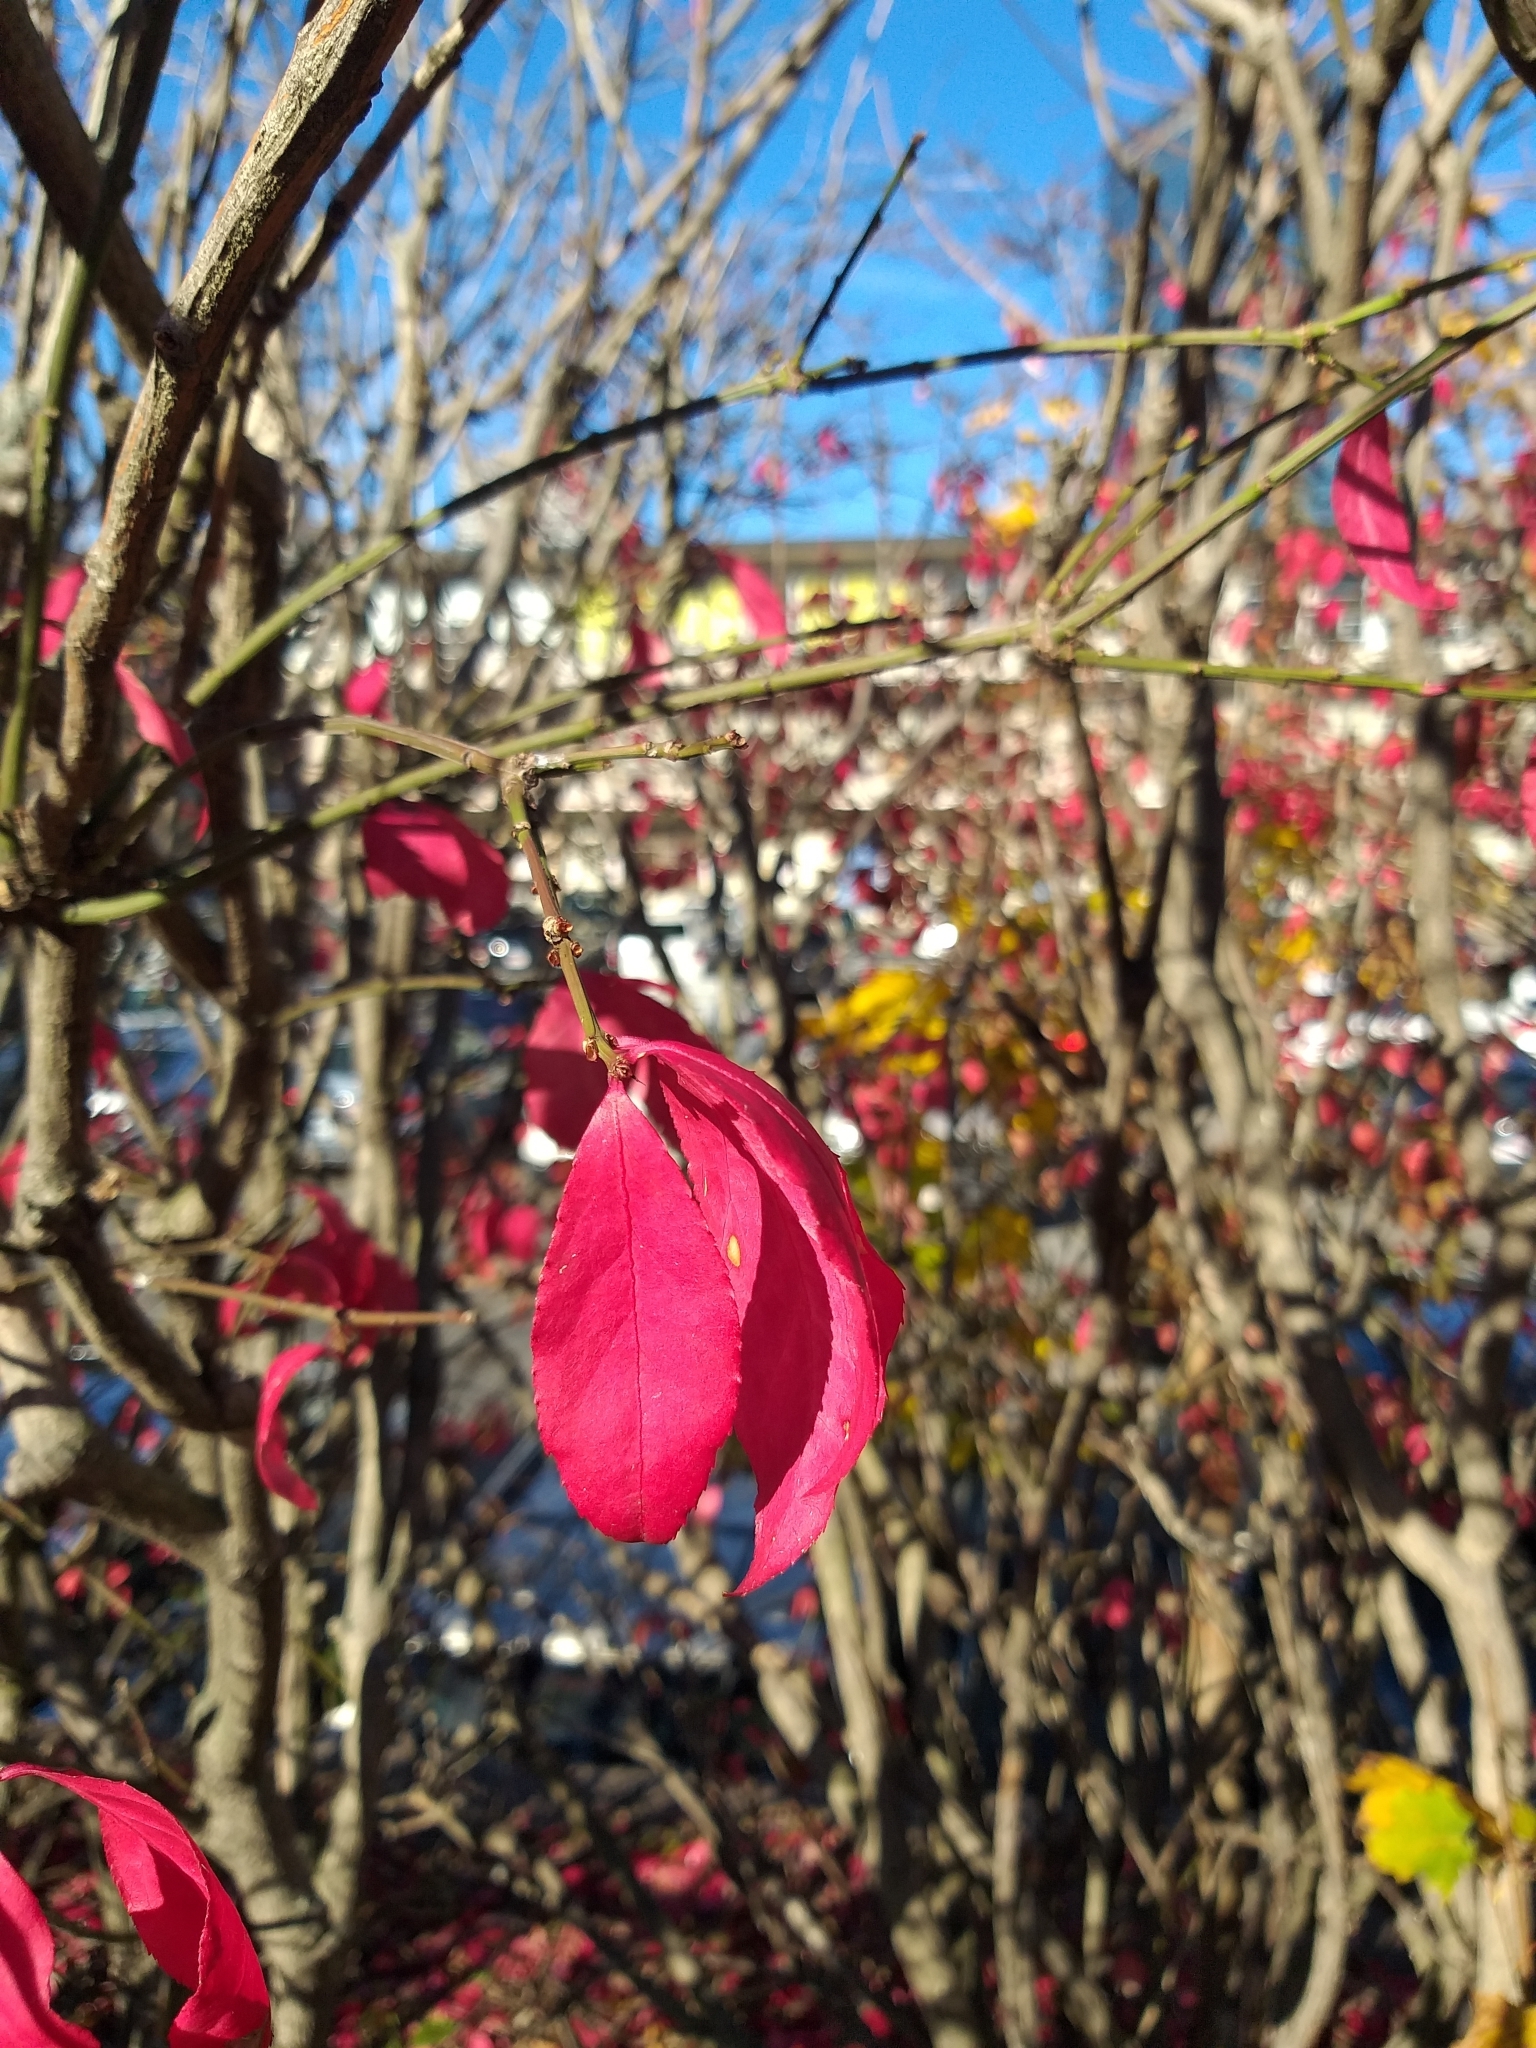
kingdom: Plantae
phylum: Tracheophyta
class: Magnoliopsida
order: Celastrales
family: Celastraceae
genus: Euonymus
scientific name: Euonymus alatus
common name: Winged euonymus
